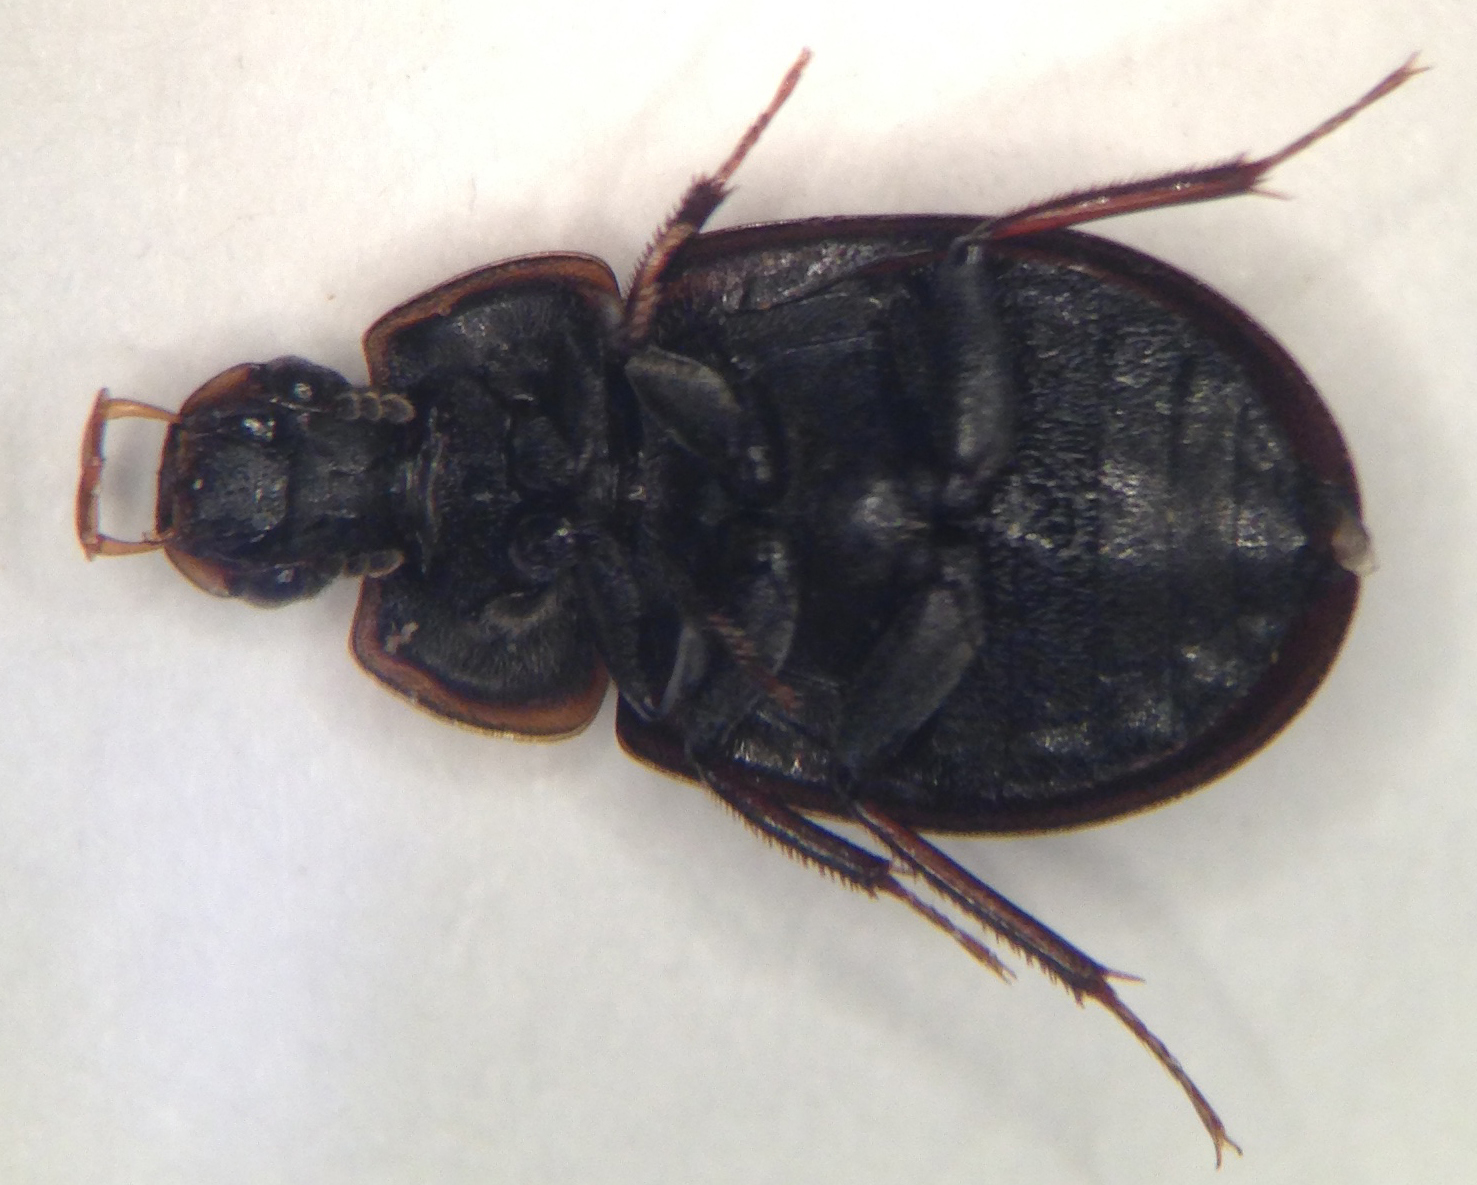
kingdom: Animalia
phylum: Arthropoda
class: Insecta
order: Coleoptera
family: Hydrophilidae
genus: Helochares
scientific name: Helochares maculicollis
